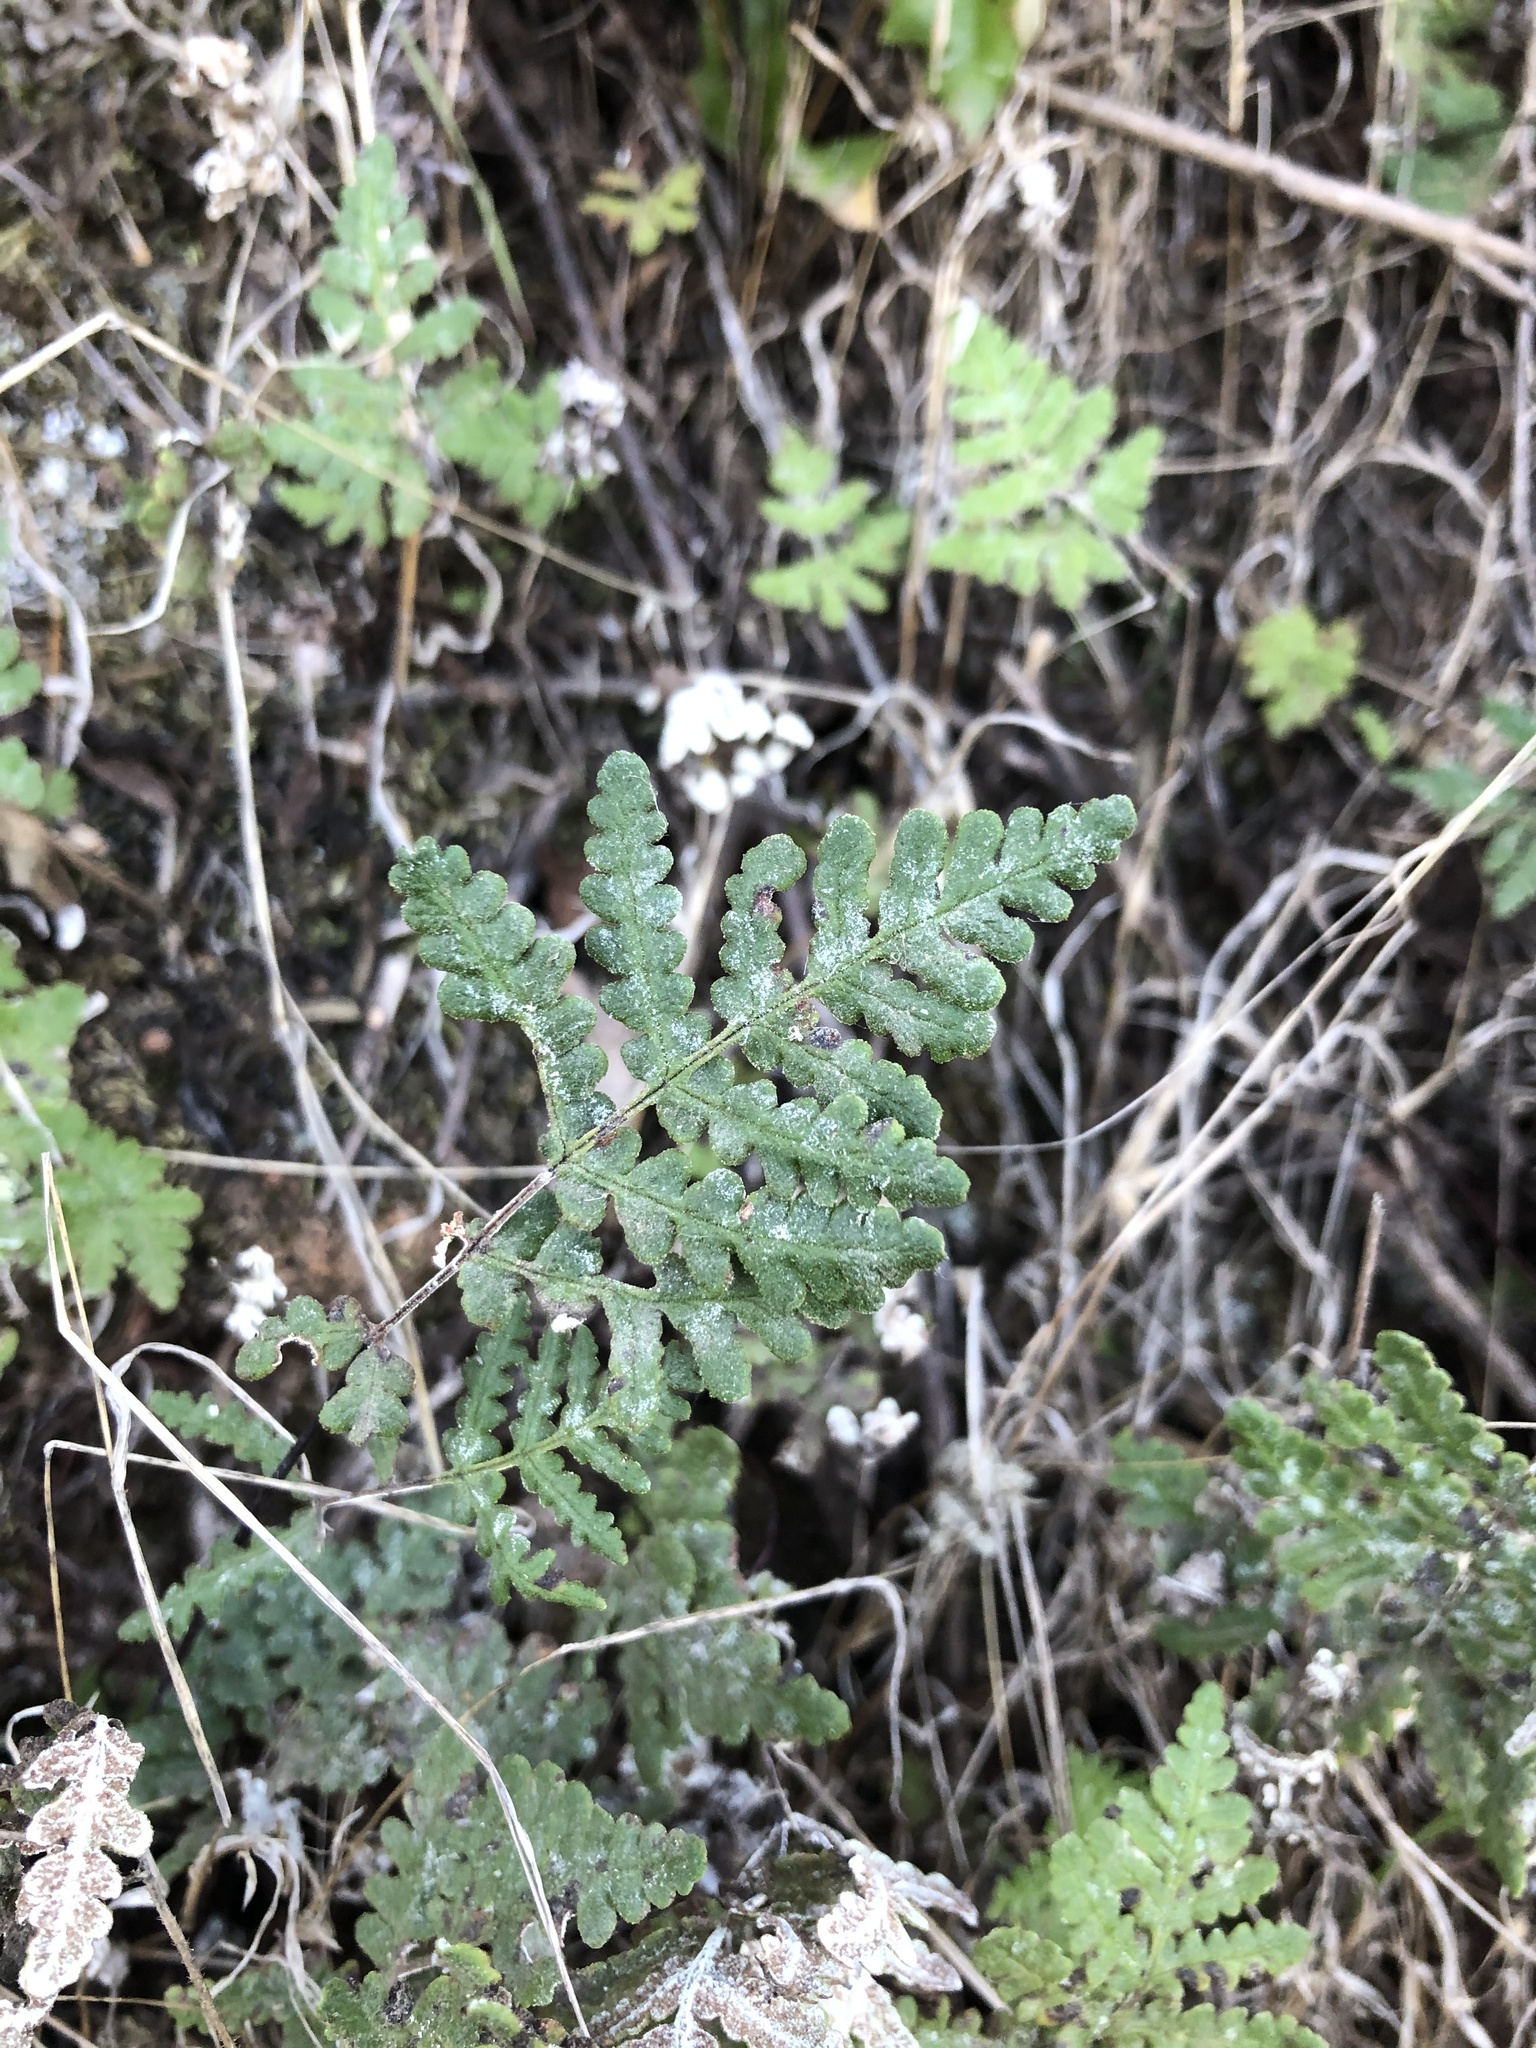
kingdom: Plantae
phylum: Tracheophyta
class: Polypodiopsida
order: Polypodiales
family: Pteridaceae
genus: Pentagramma
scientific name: Pentagramma glanduloviscida
